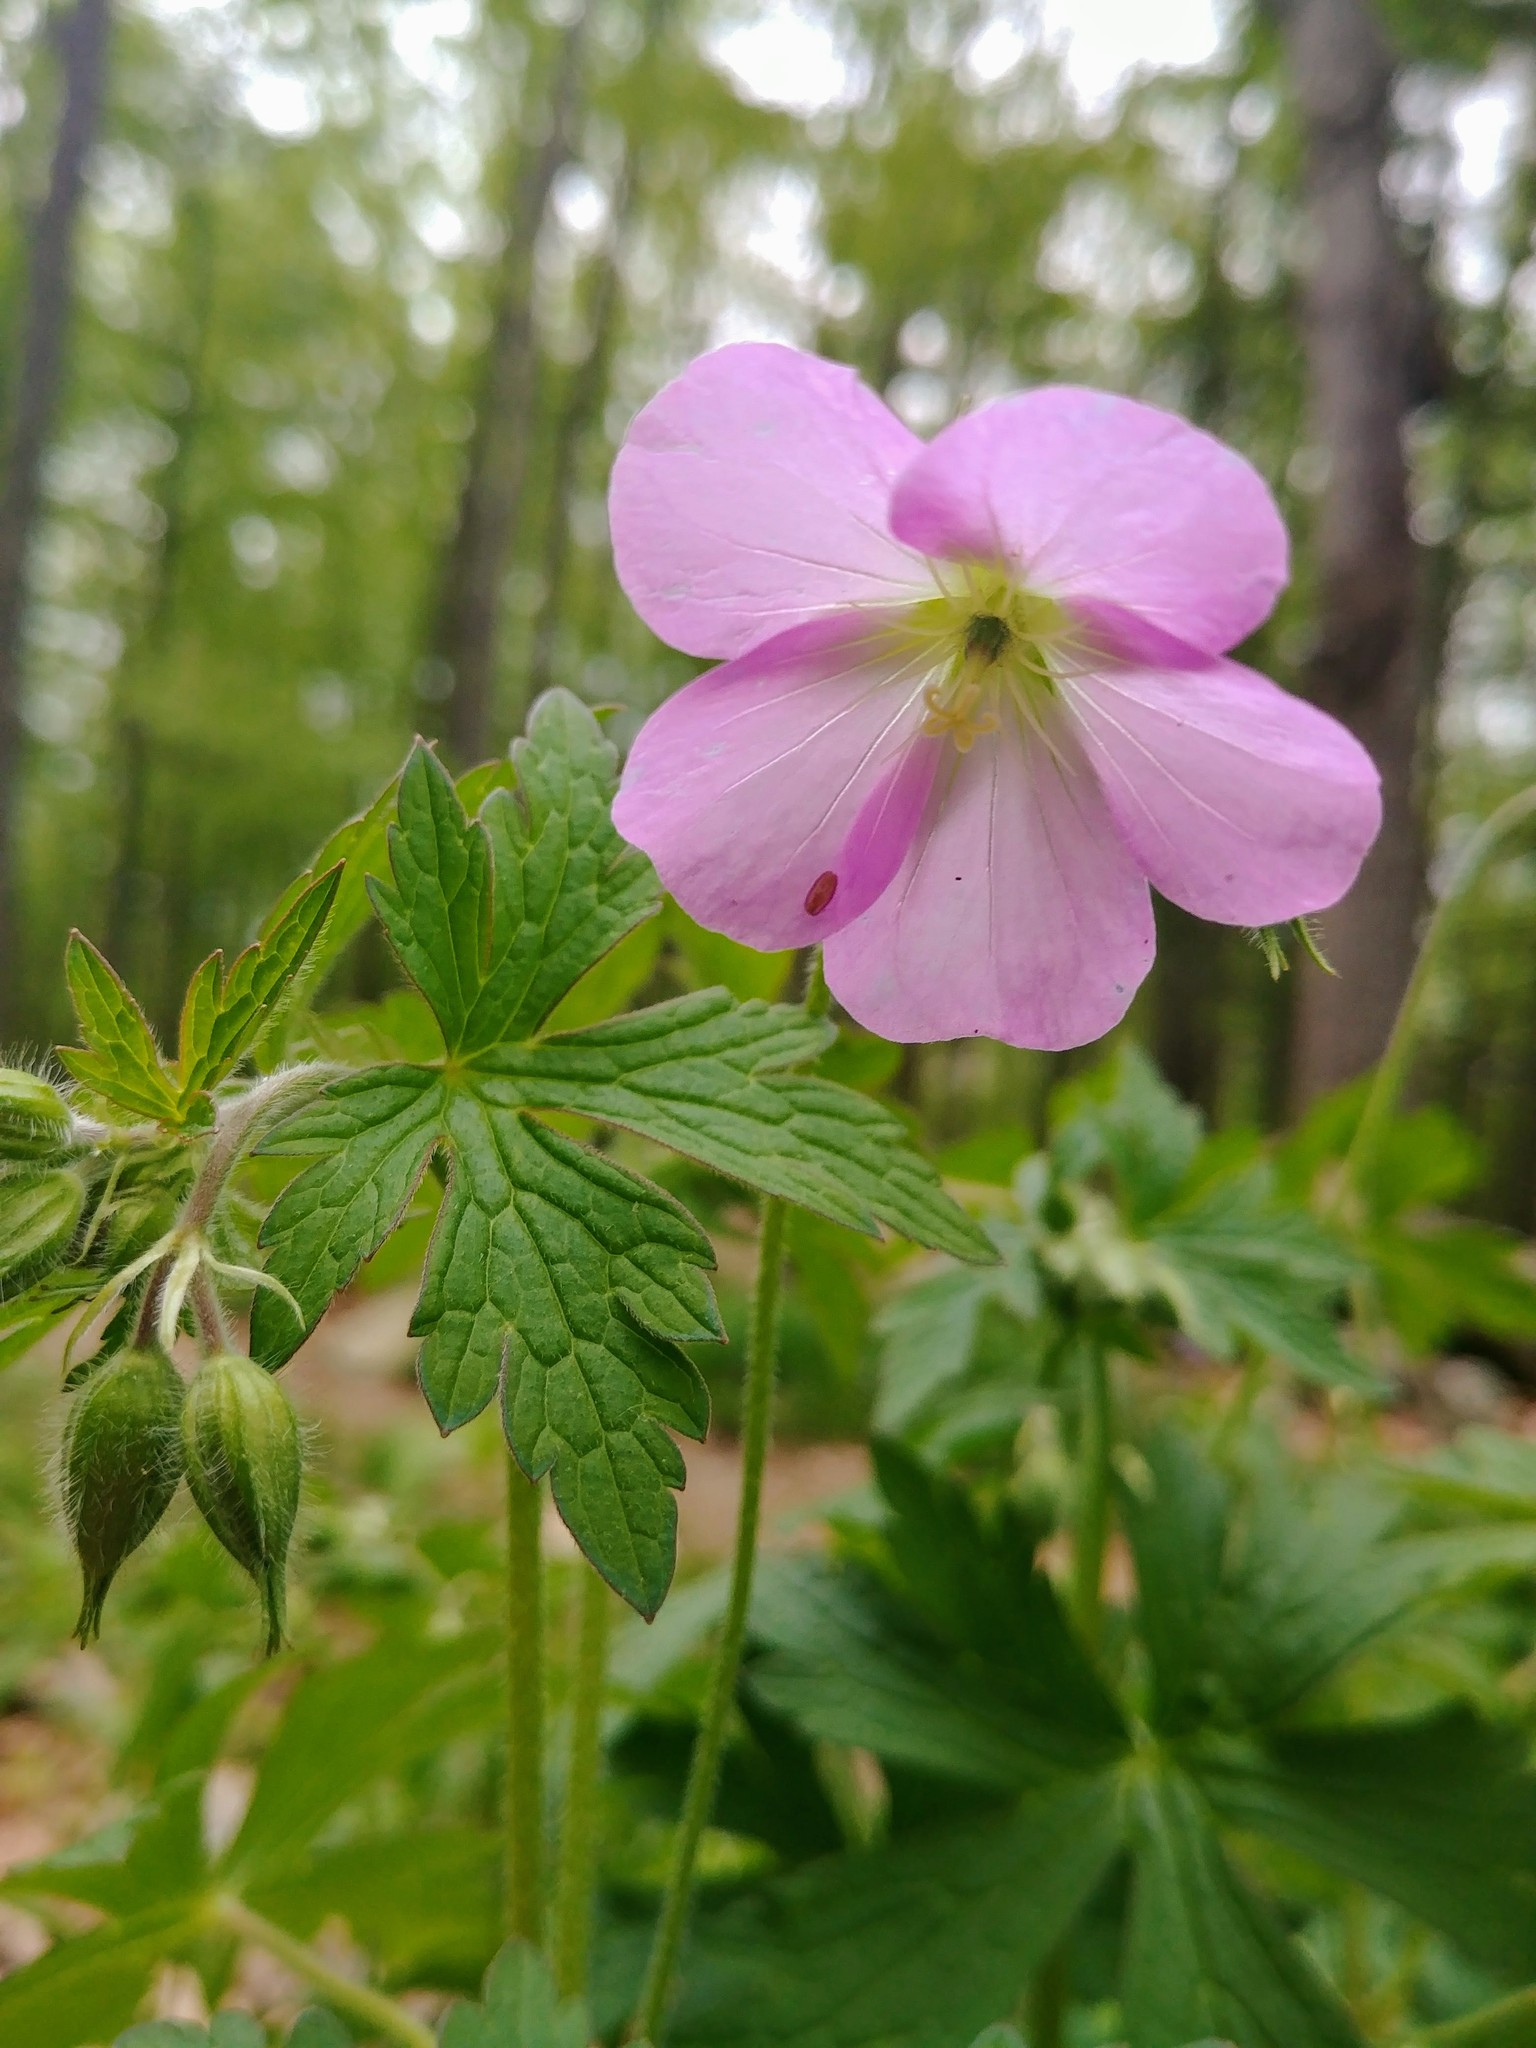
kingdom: Plantae
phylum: Tracheophyta
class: Magnoliopsida
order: Geraniales
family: Geraniaceae
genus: Geranium
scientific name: Geranium maculatum
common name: Spotted geranium
